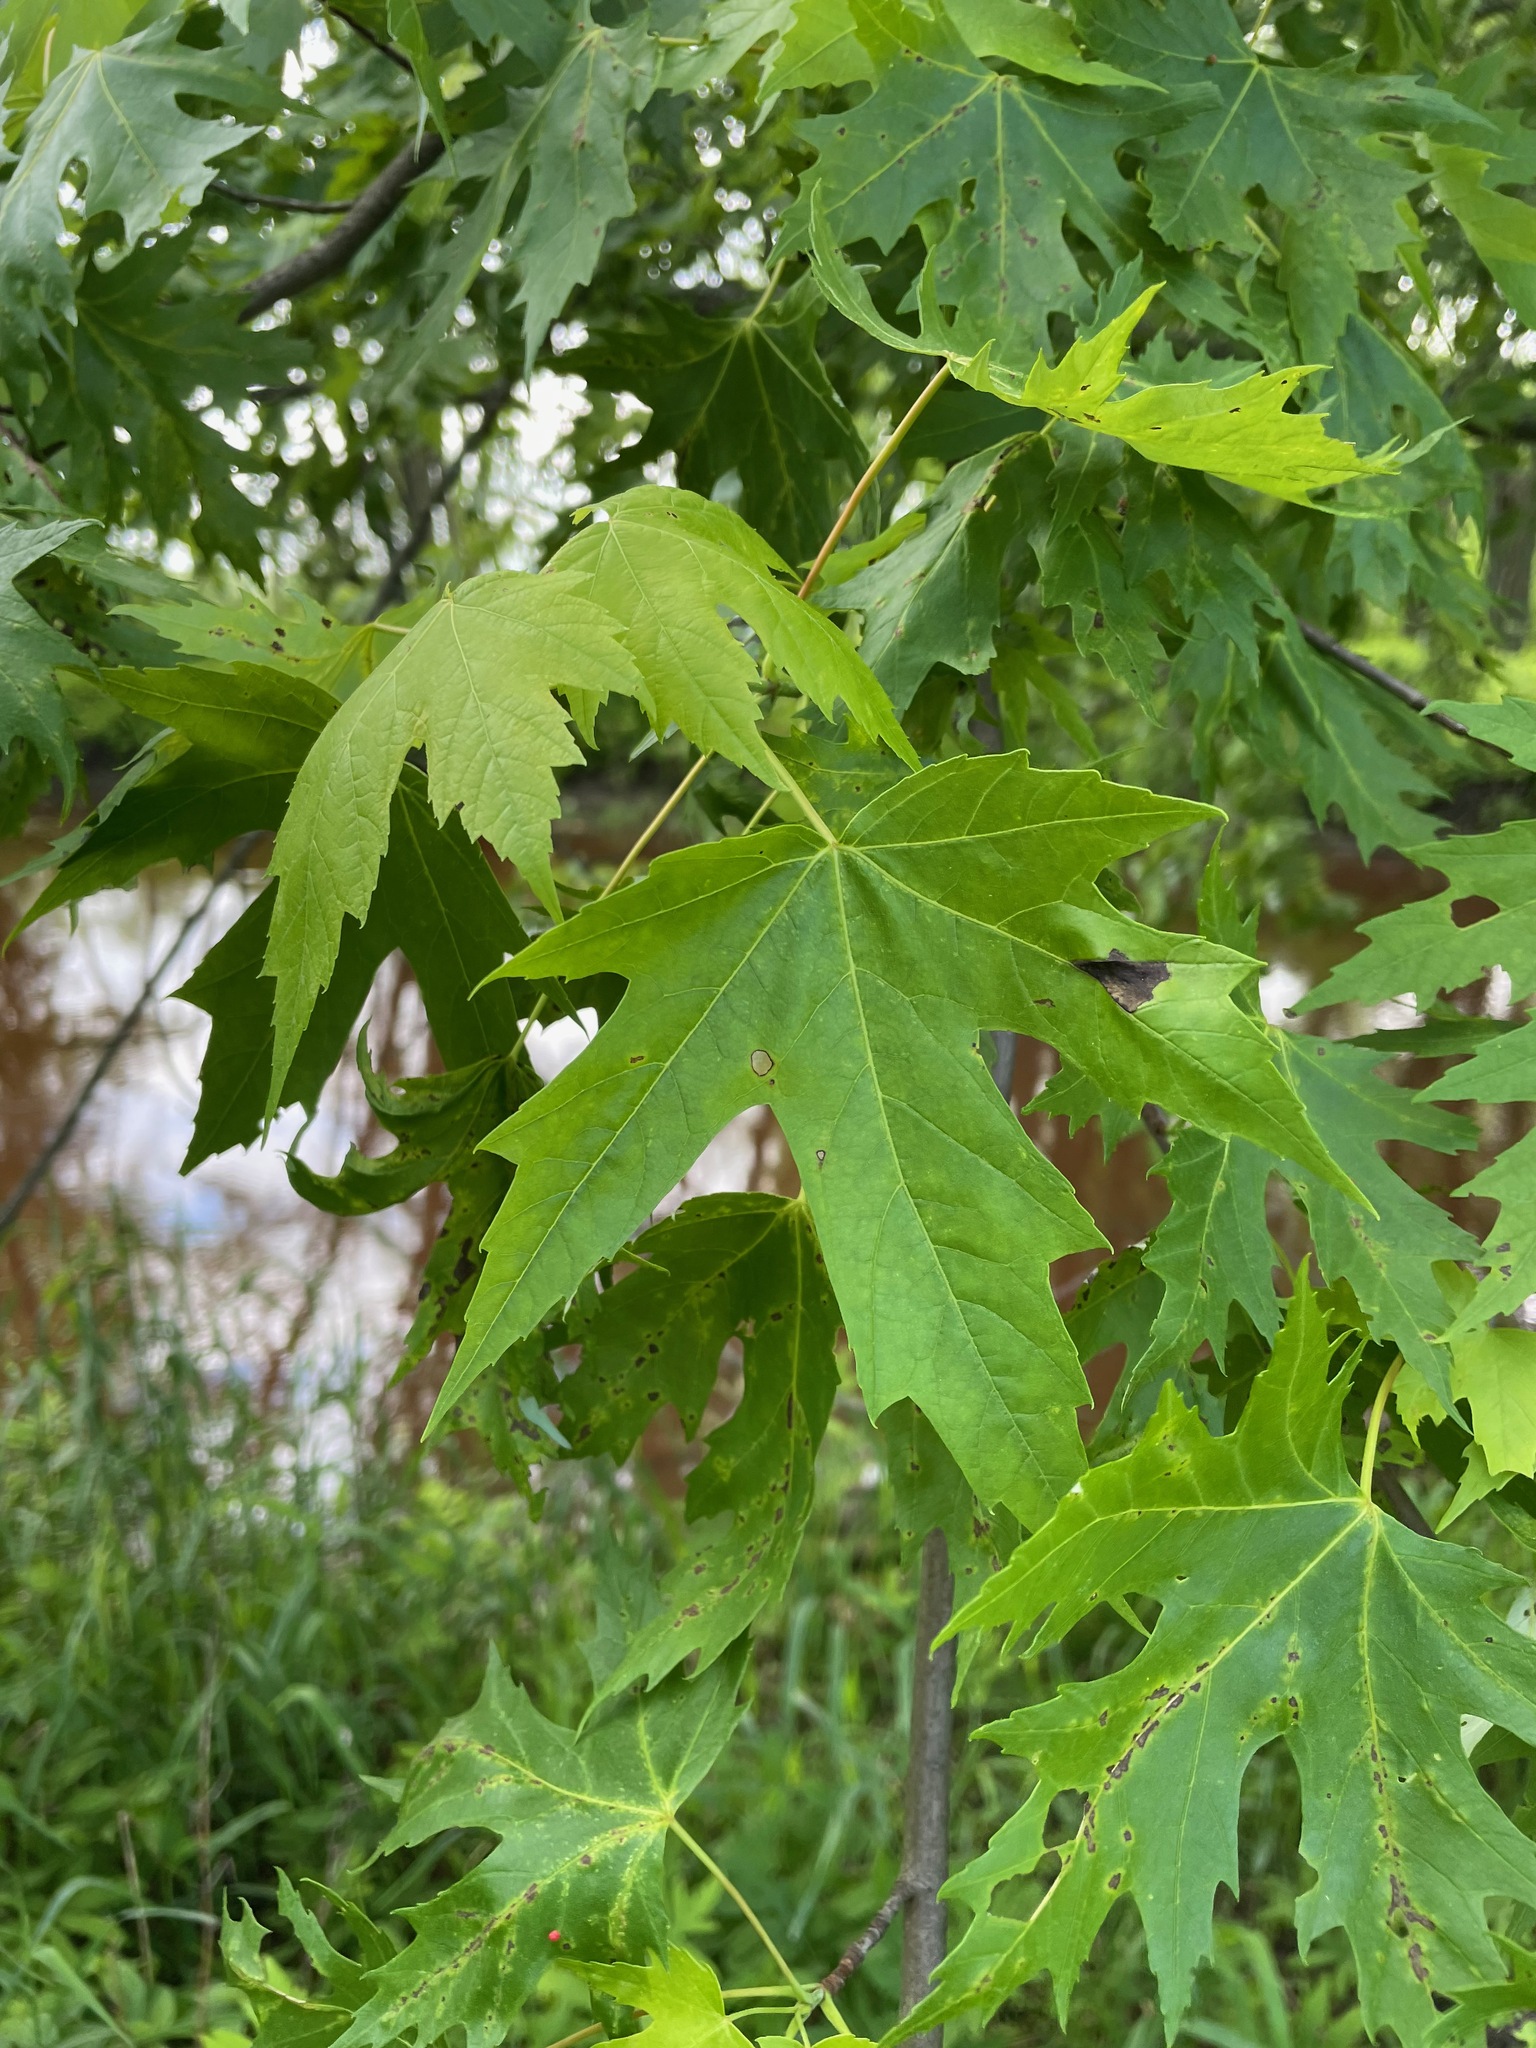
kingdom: Plantae
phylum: Tracheophyta
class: Magnoliopsida
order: Sapindales
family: Sapindaceae
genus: Acer
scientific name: Acer saccharinum
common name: Silver maple
